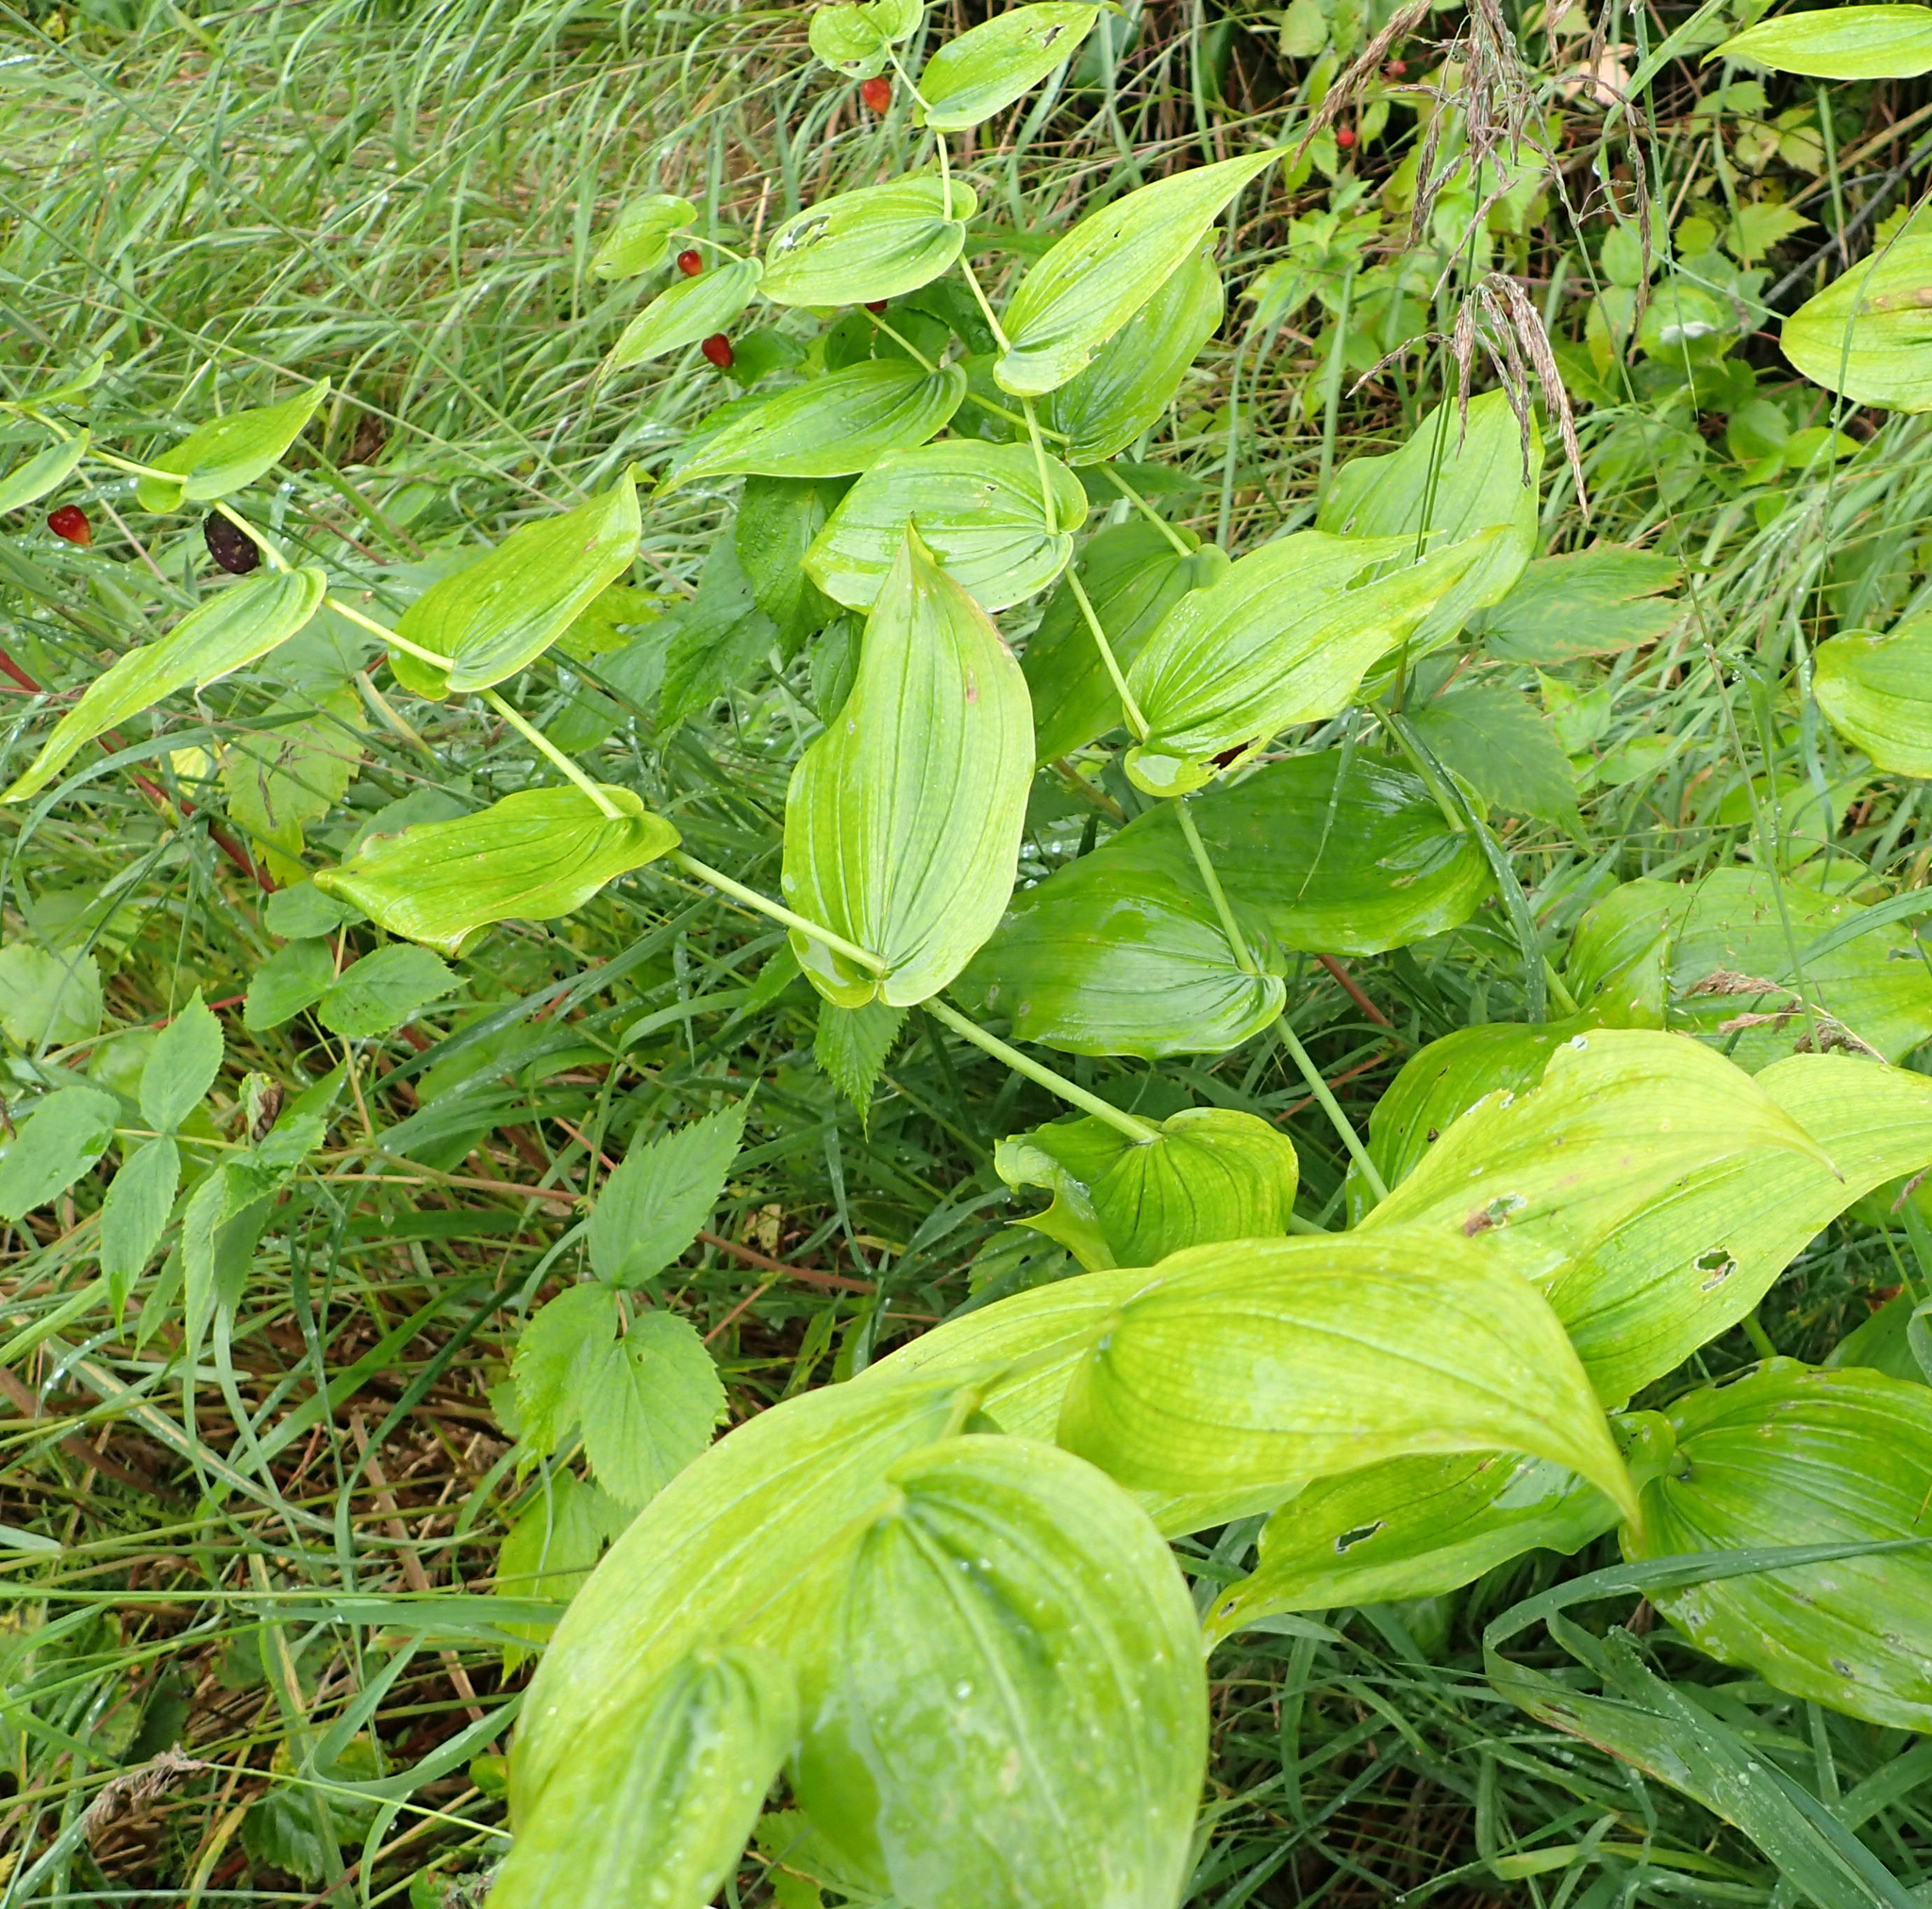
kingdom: Plantae
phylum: Tracheophyta
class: Liliopsida
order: Liliales
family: Liliaceae
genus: Streptopus
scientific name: Streptopus amplexifolius
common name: Clasp twisted stalk
